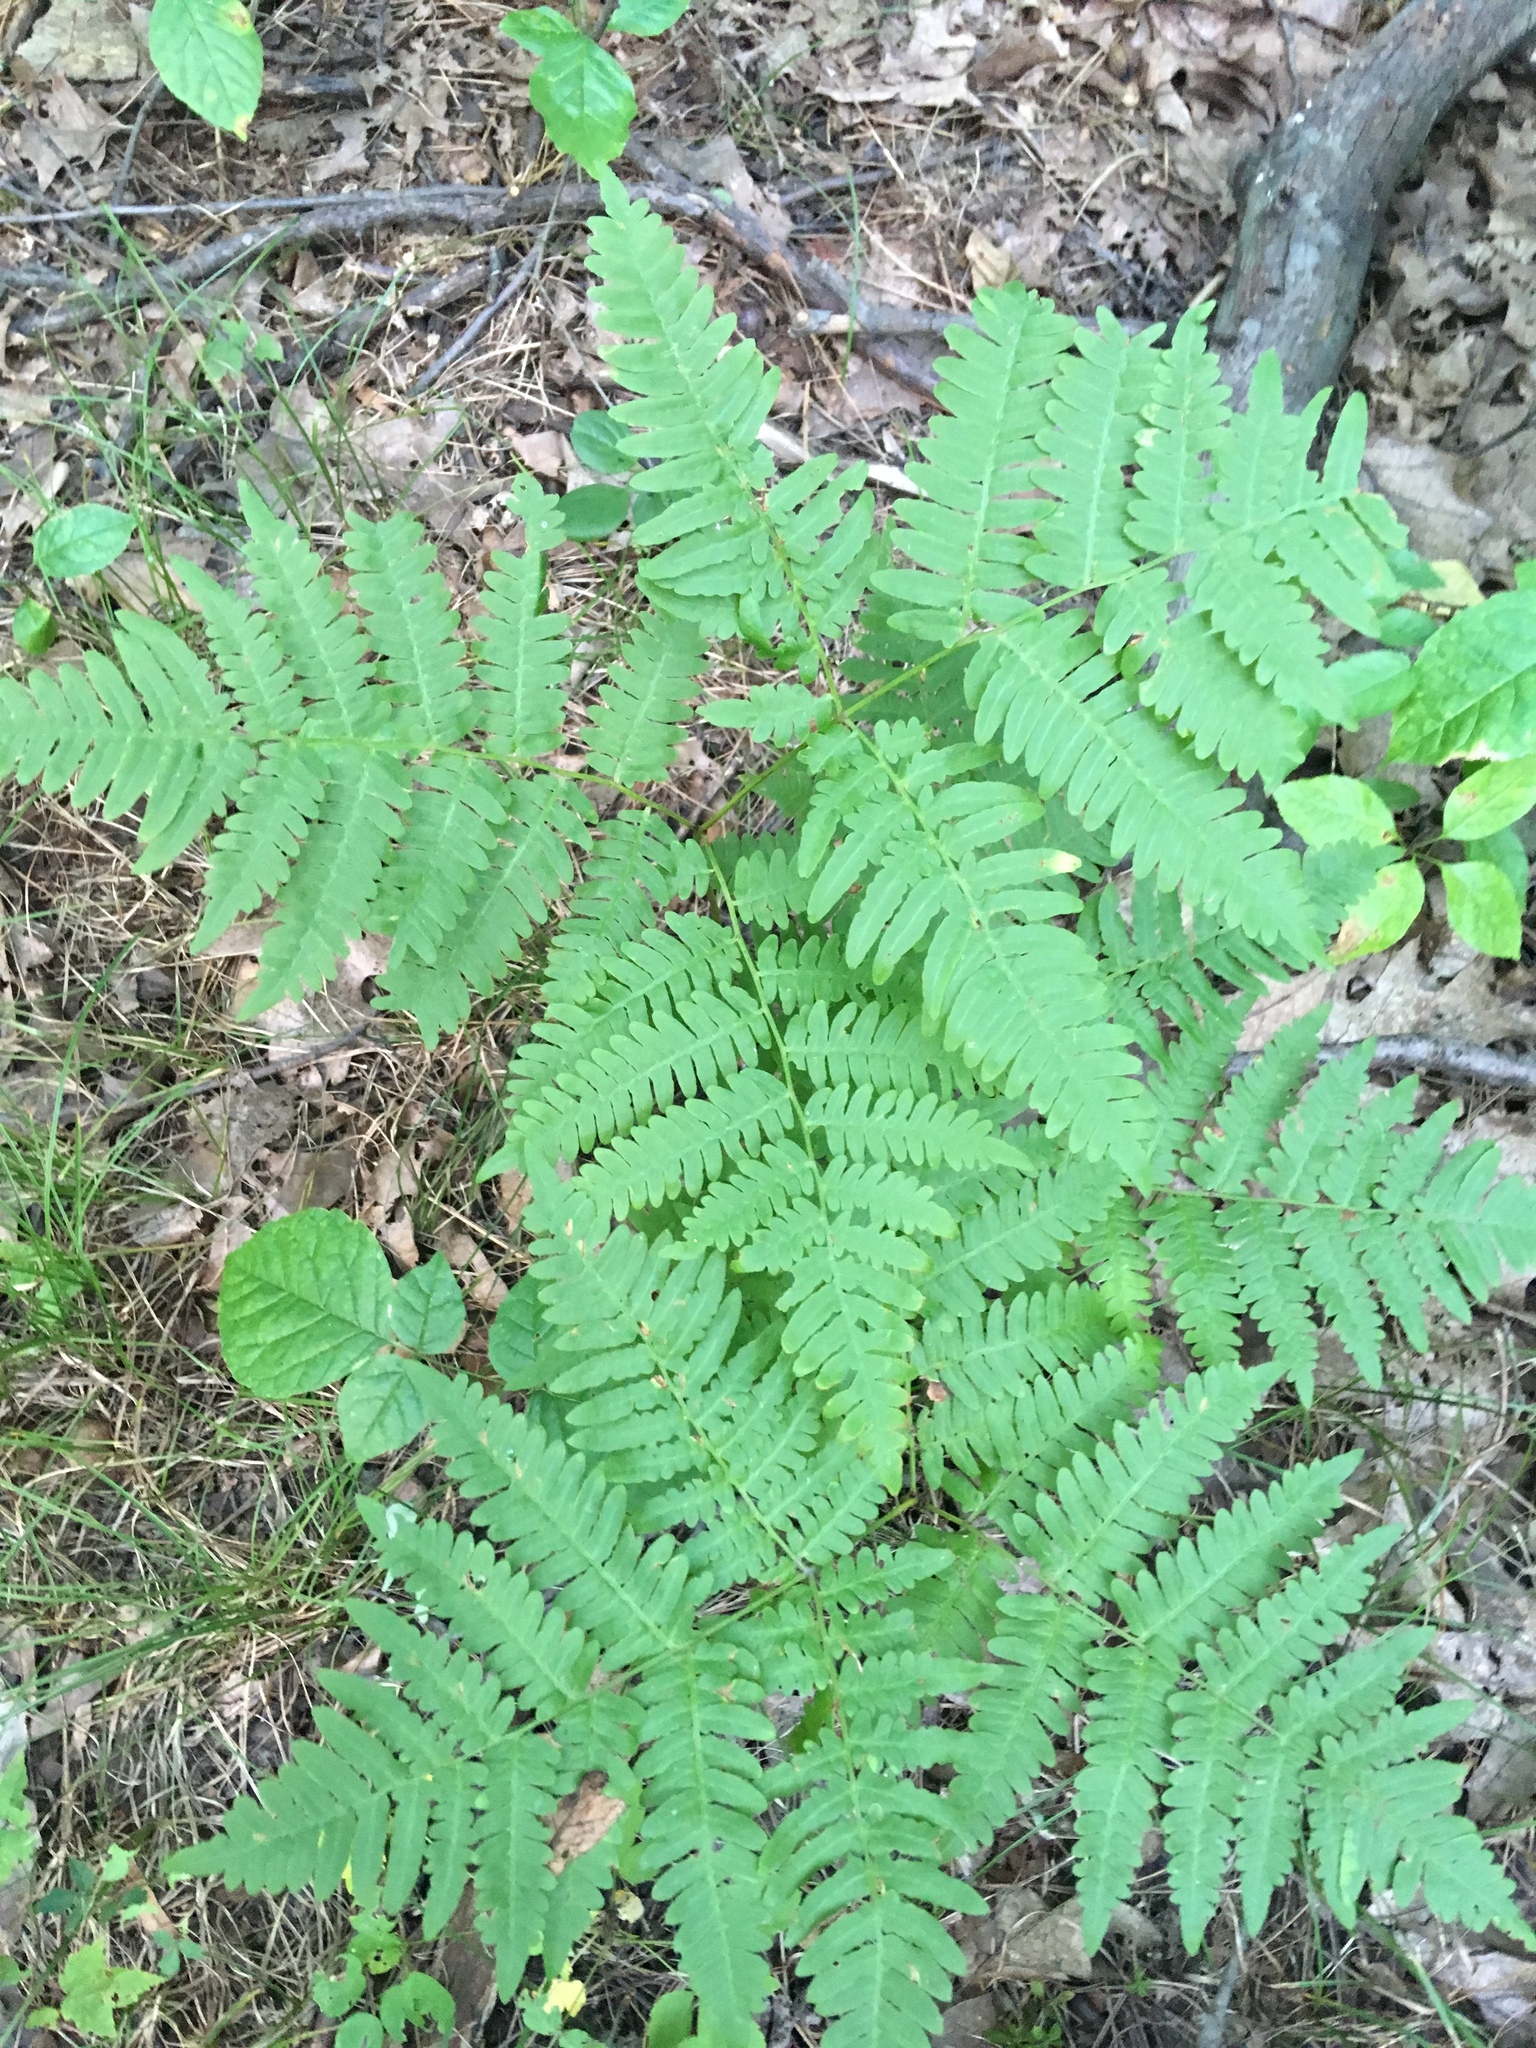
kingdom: Plantae
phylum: Tracheophyta
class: Polypodiopsida
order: Polypodiales
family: Dennstaedtiaceae
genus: Pteridium
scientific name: Pteridium aquilinum
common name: Bracken
